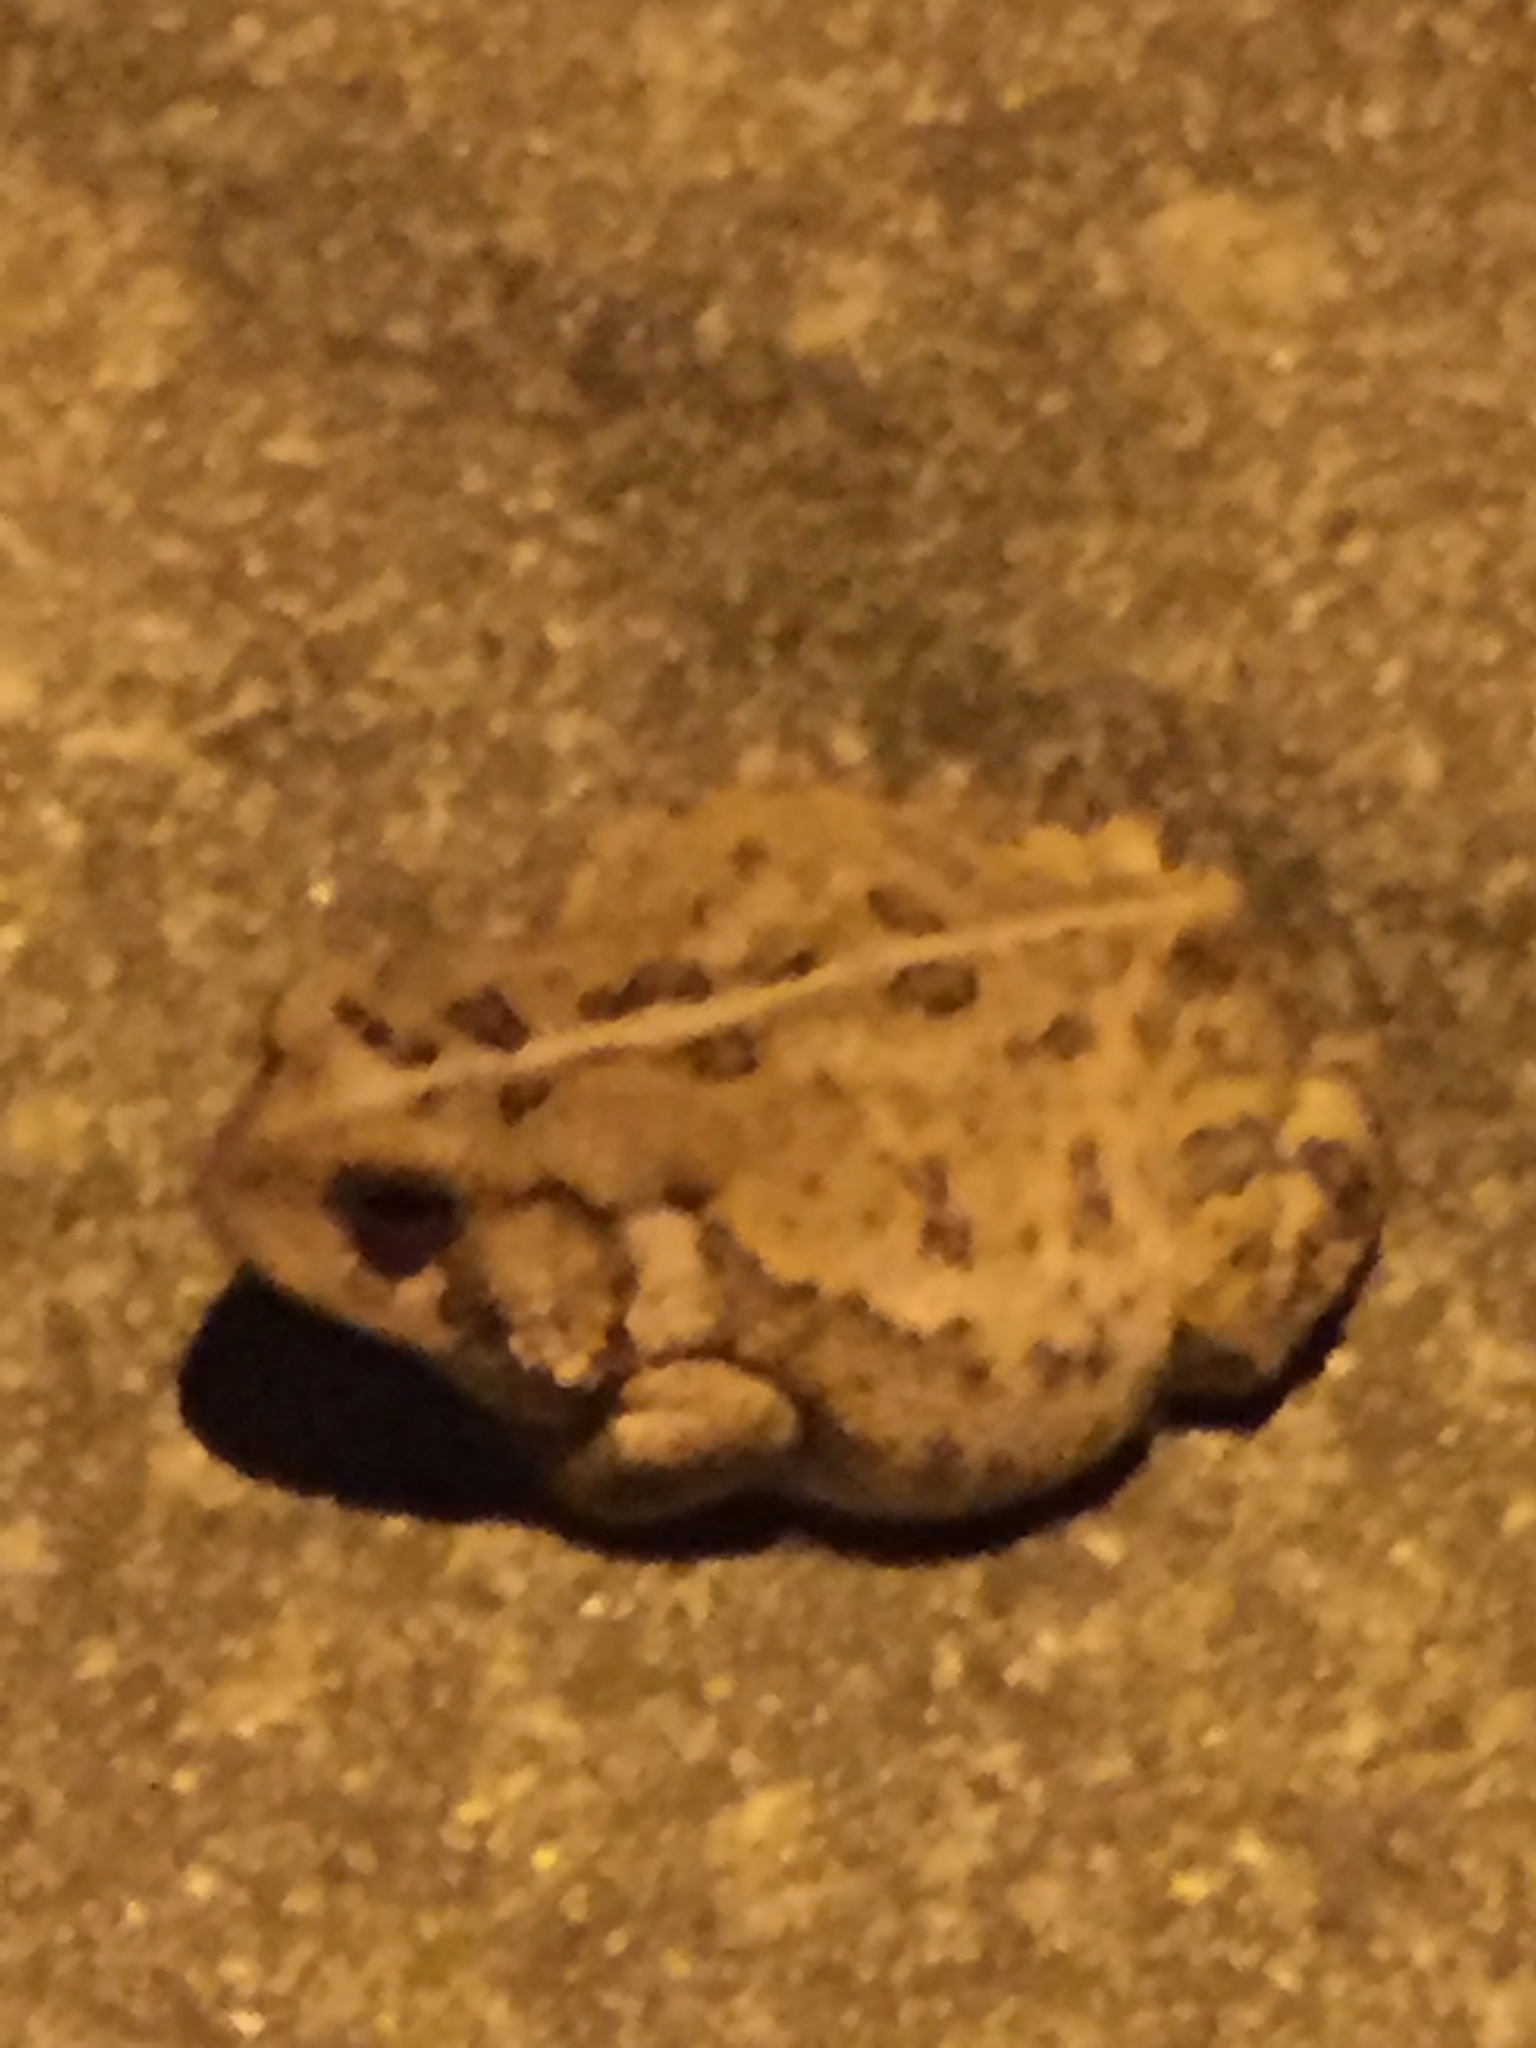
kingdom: Animalia
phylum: Chordata
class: Amphibia
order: Anura
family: Bufonidae
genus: Anaxyrus
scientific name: Anaxyrus americanus
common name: American toad
